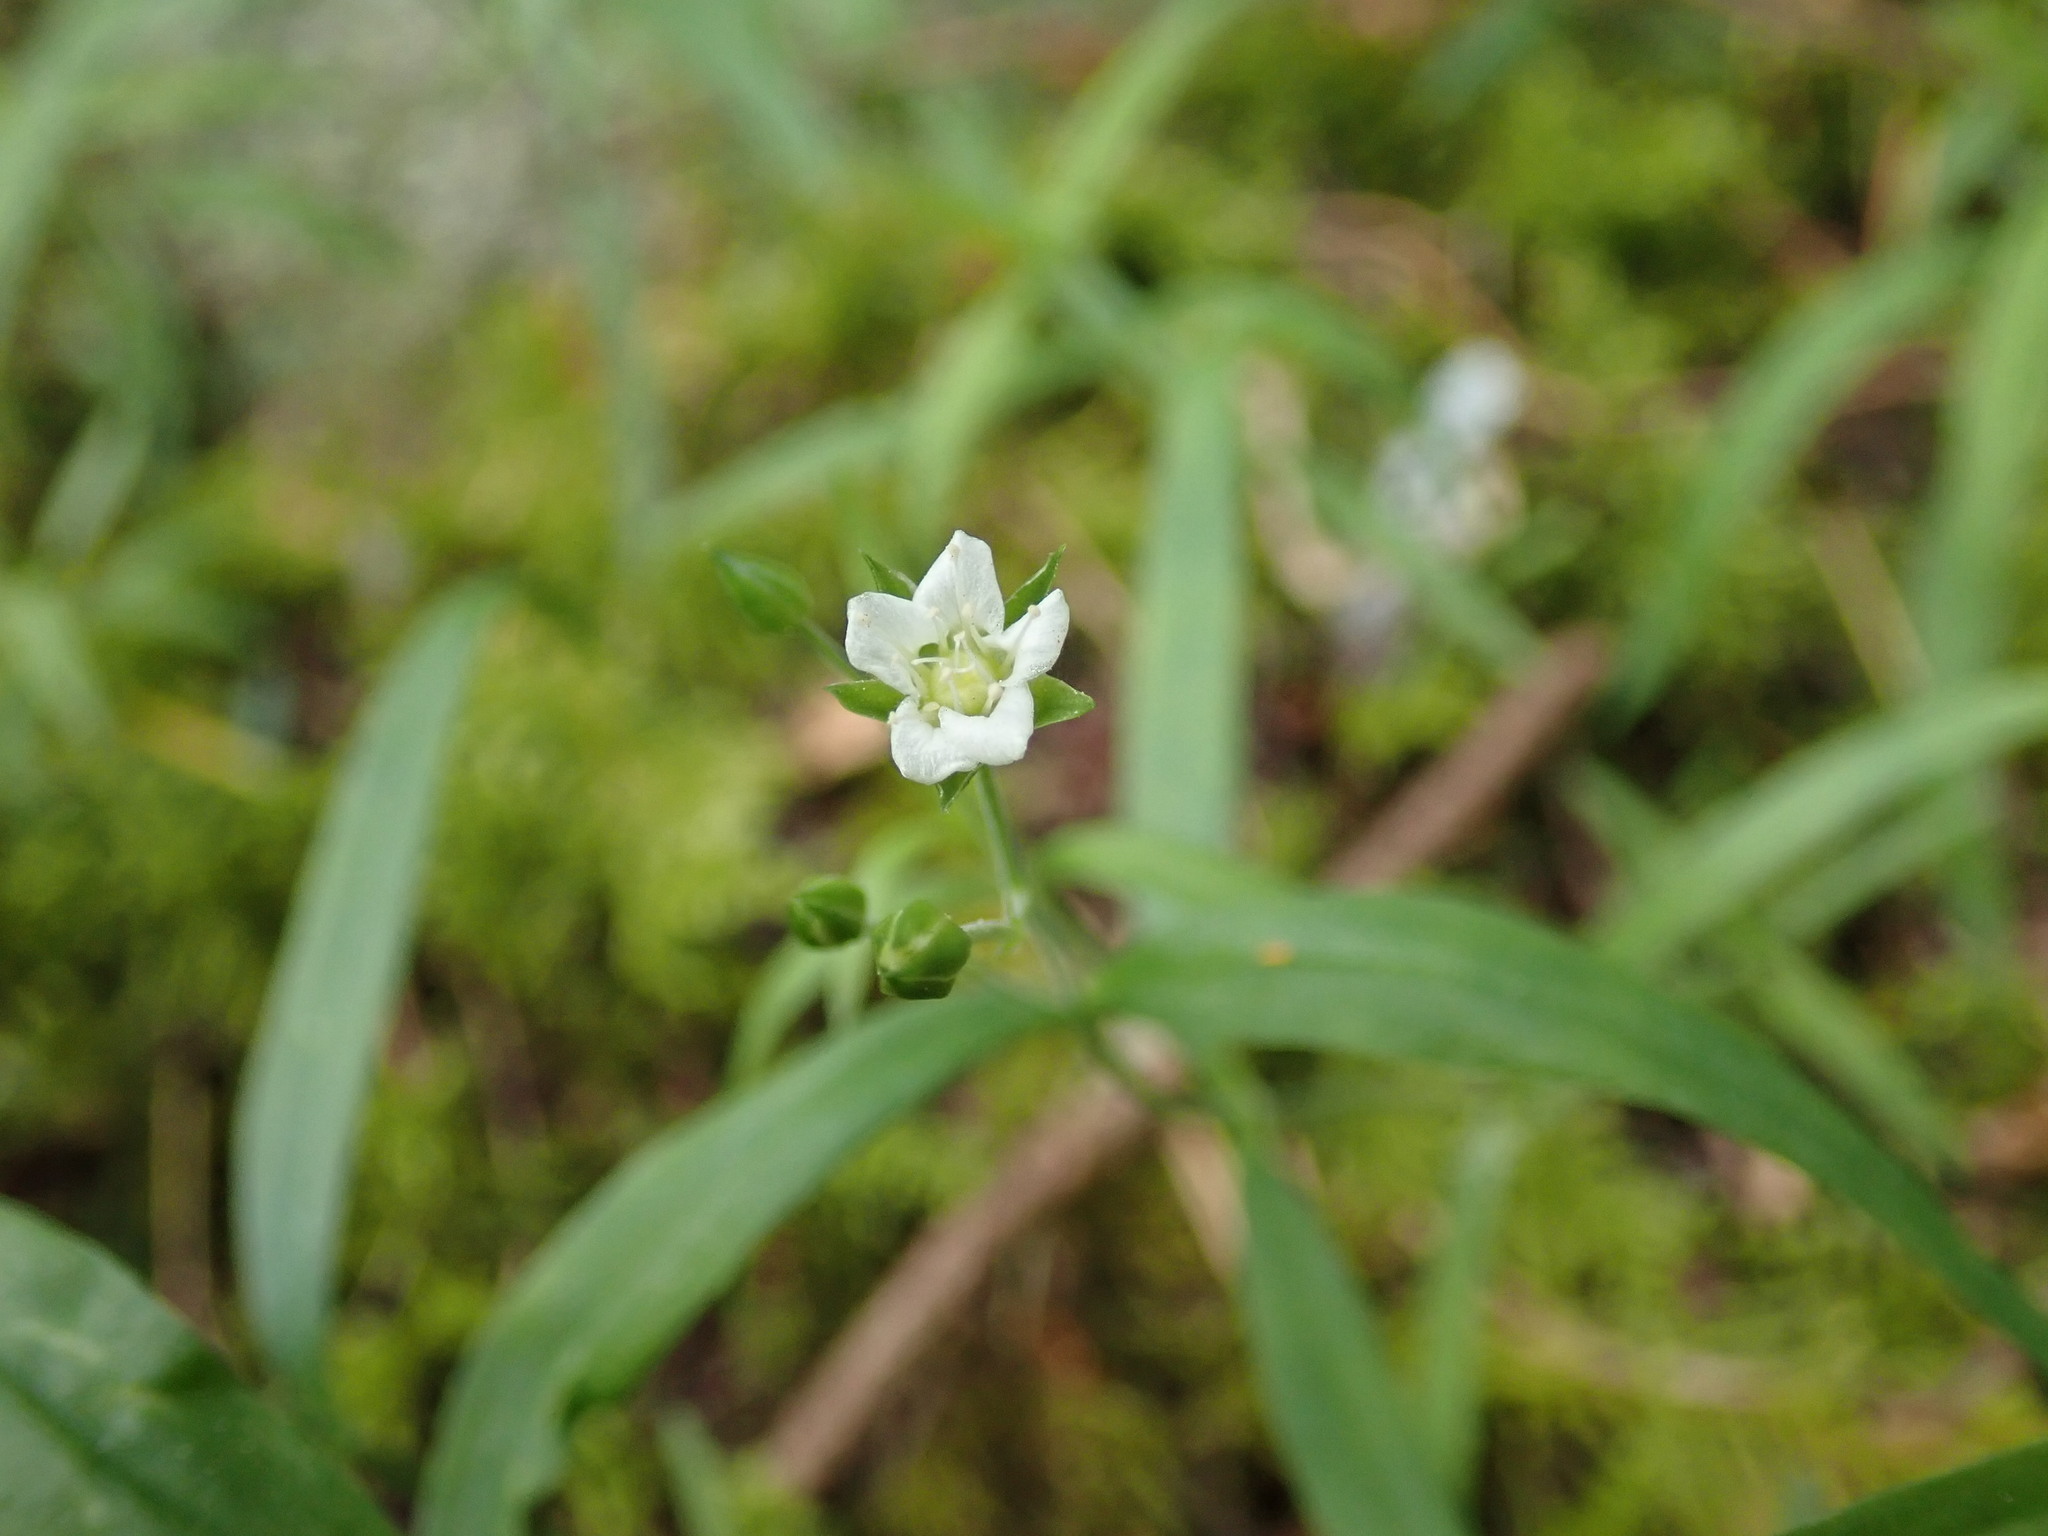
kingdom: Plantae
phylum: Tracheophyta
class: Magnoliopsida
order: Caryophyllales
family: Caryophyllaceae
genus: Moehringia
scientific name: Moehringia macrophylla
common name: Big-leaf sandwort
